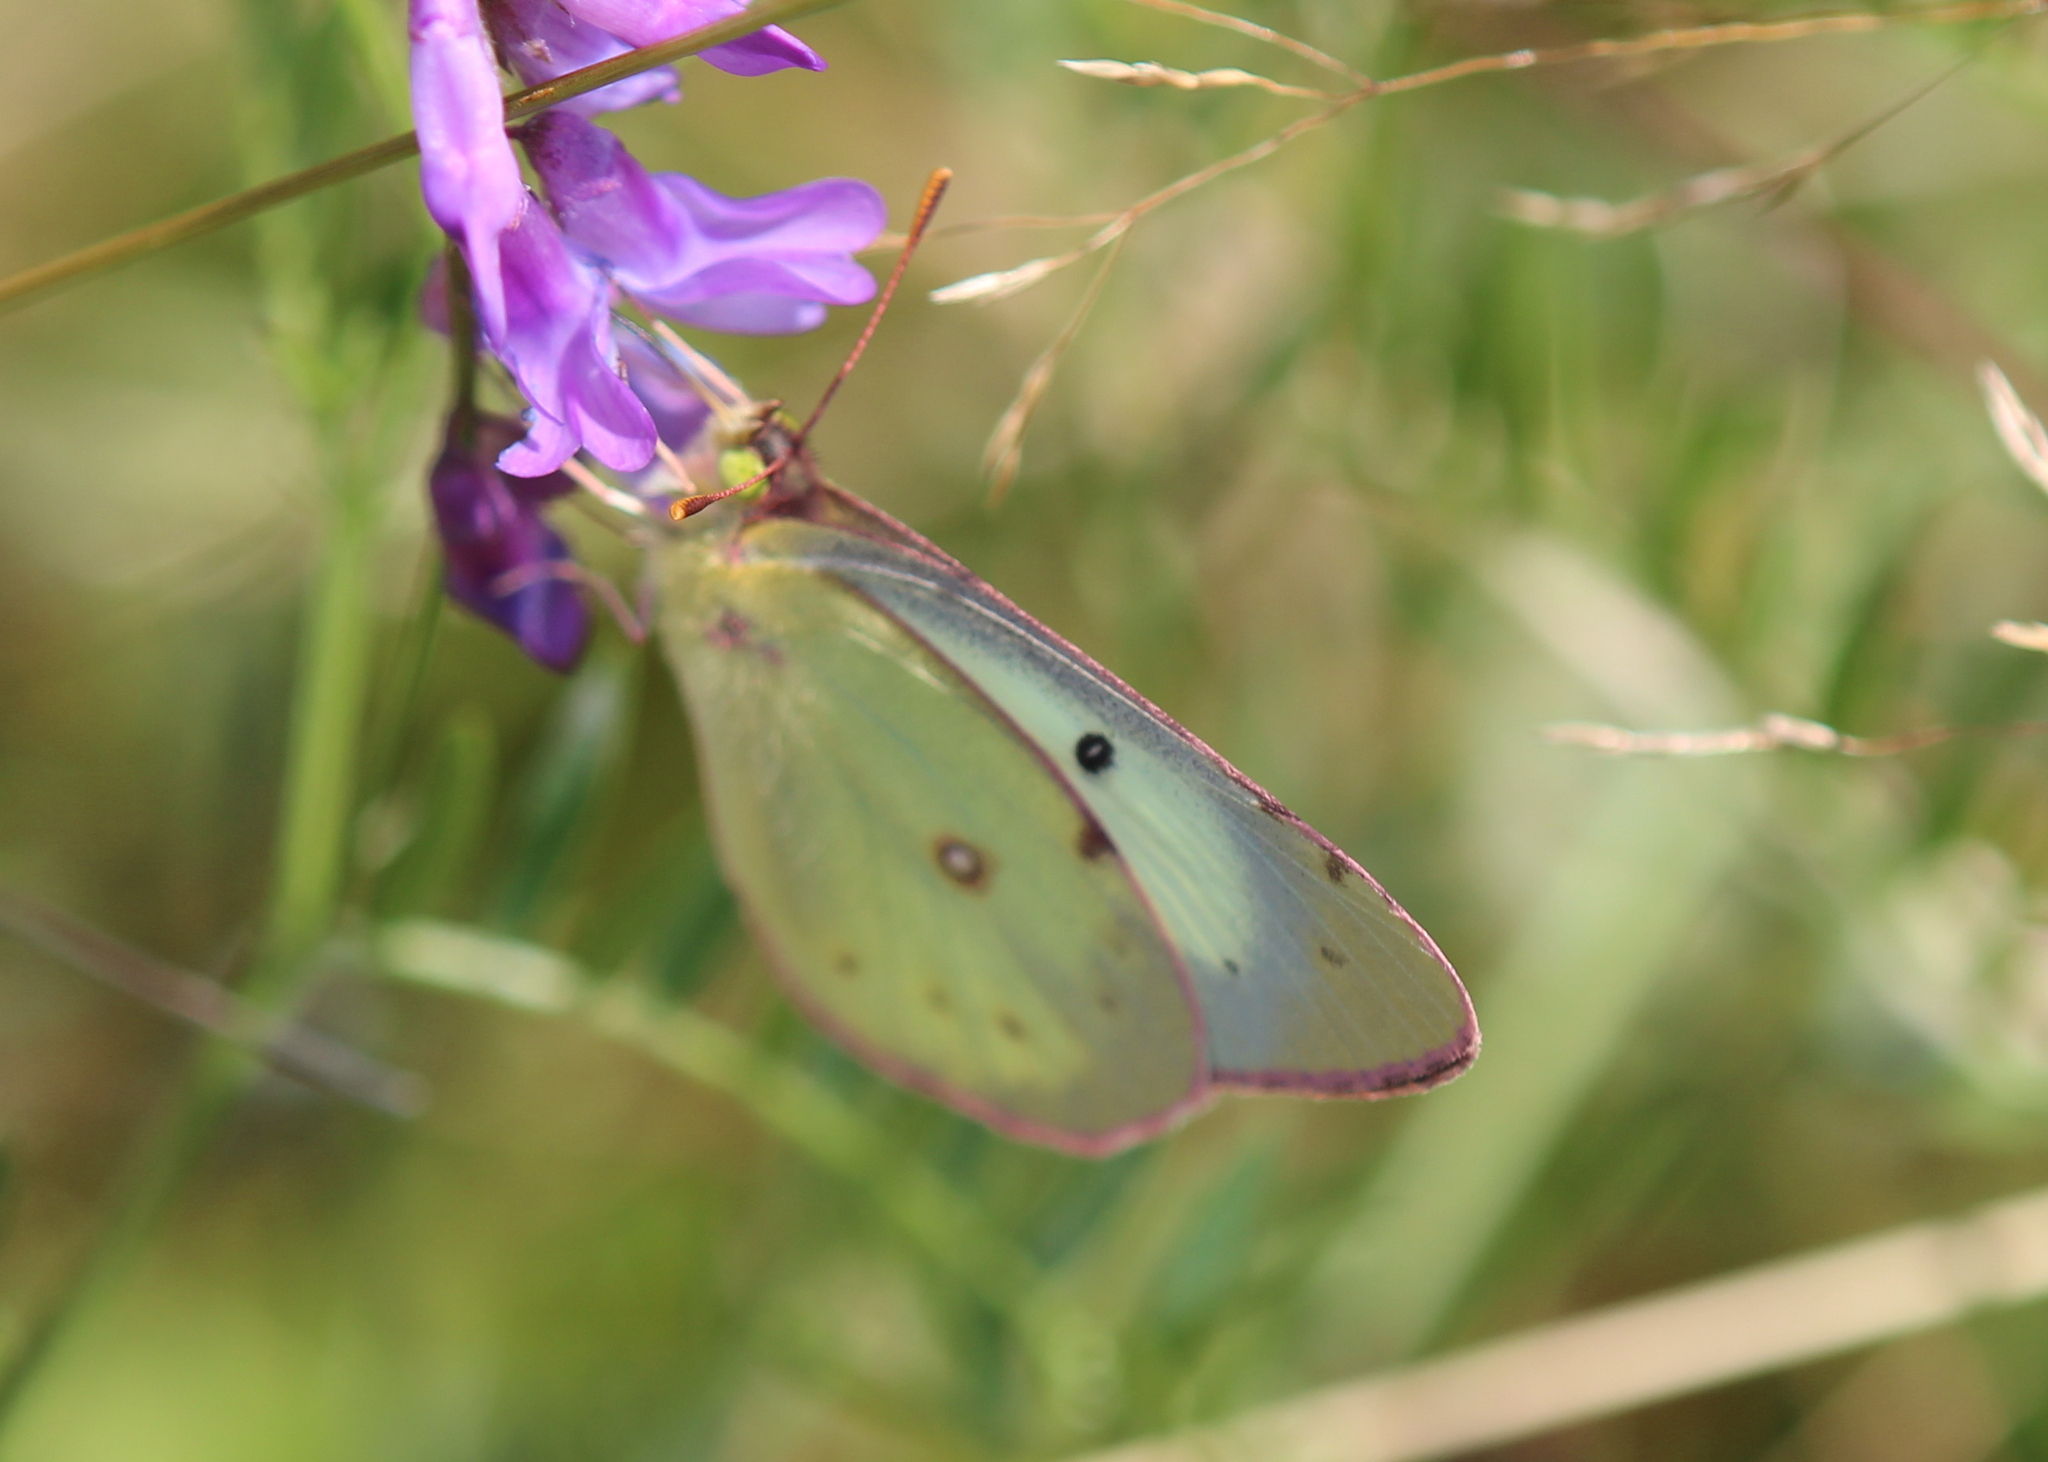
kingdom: Animalia
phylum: Arthropoda
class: Insecta
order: Lepidoptera
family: Pieridae
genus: Colias
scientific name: Colias philodice
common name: Clouded sulphur
